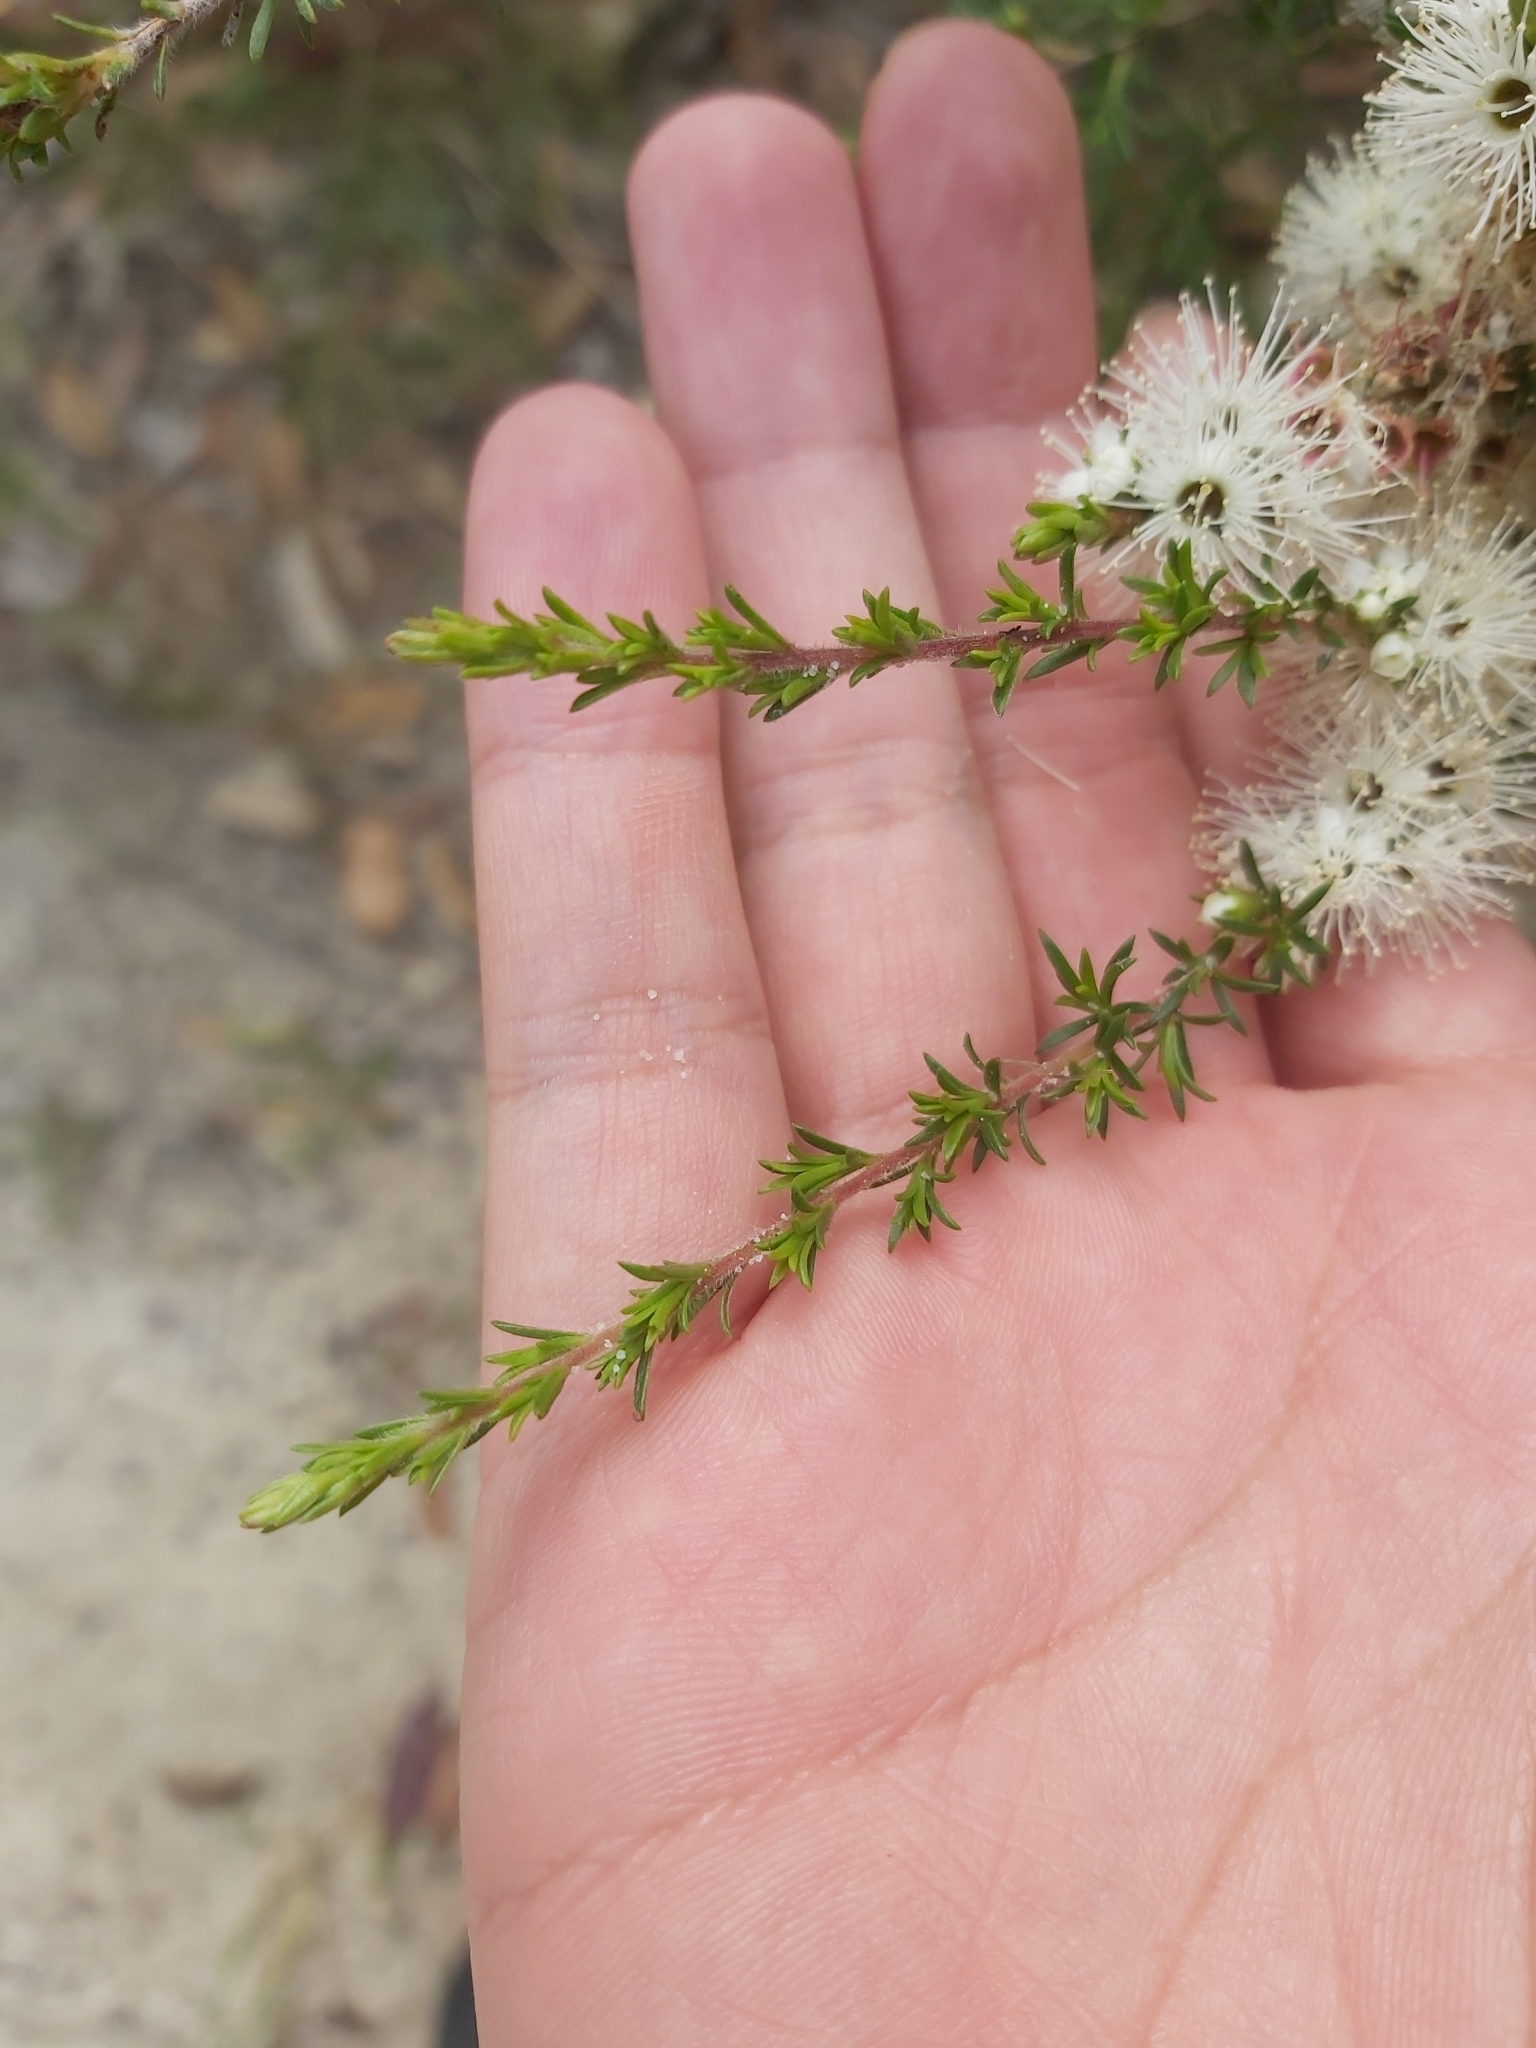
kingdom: Plantae
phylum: Tracheophyta
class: Magnoliopsida
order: Myrtales
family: Myrtaceae
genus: Kunzea
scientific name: Kunzea ambigua
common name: Tickbush
